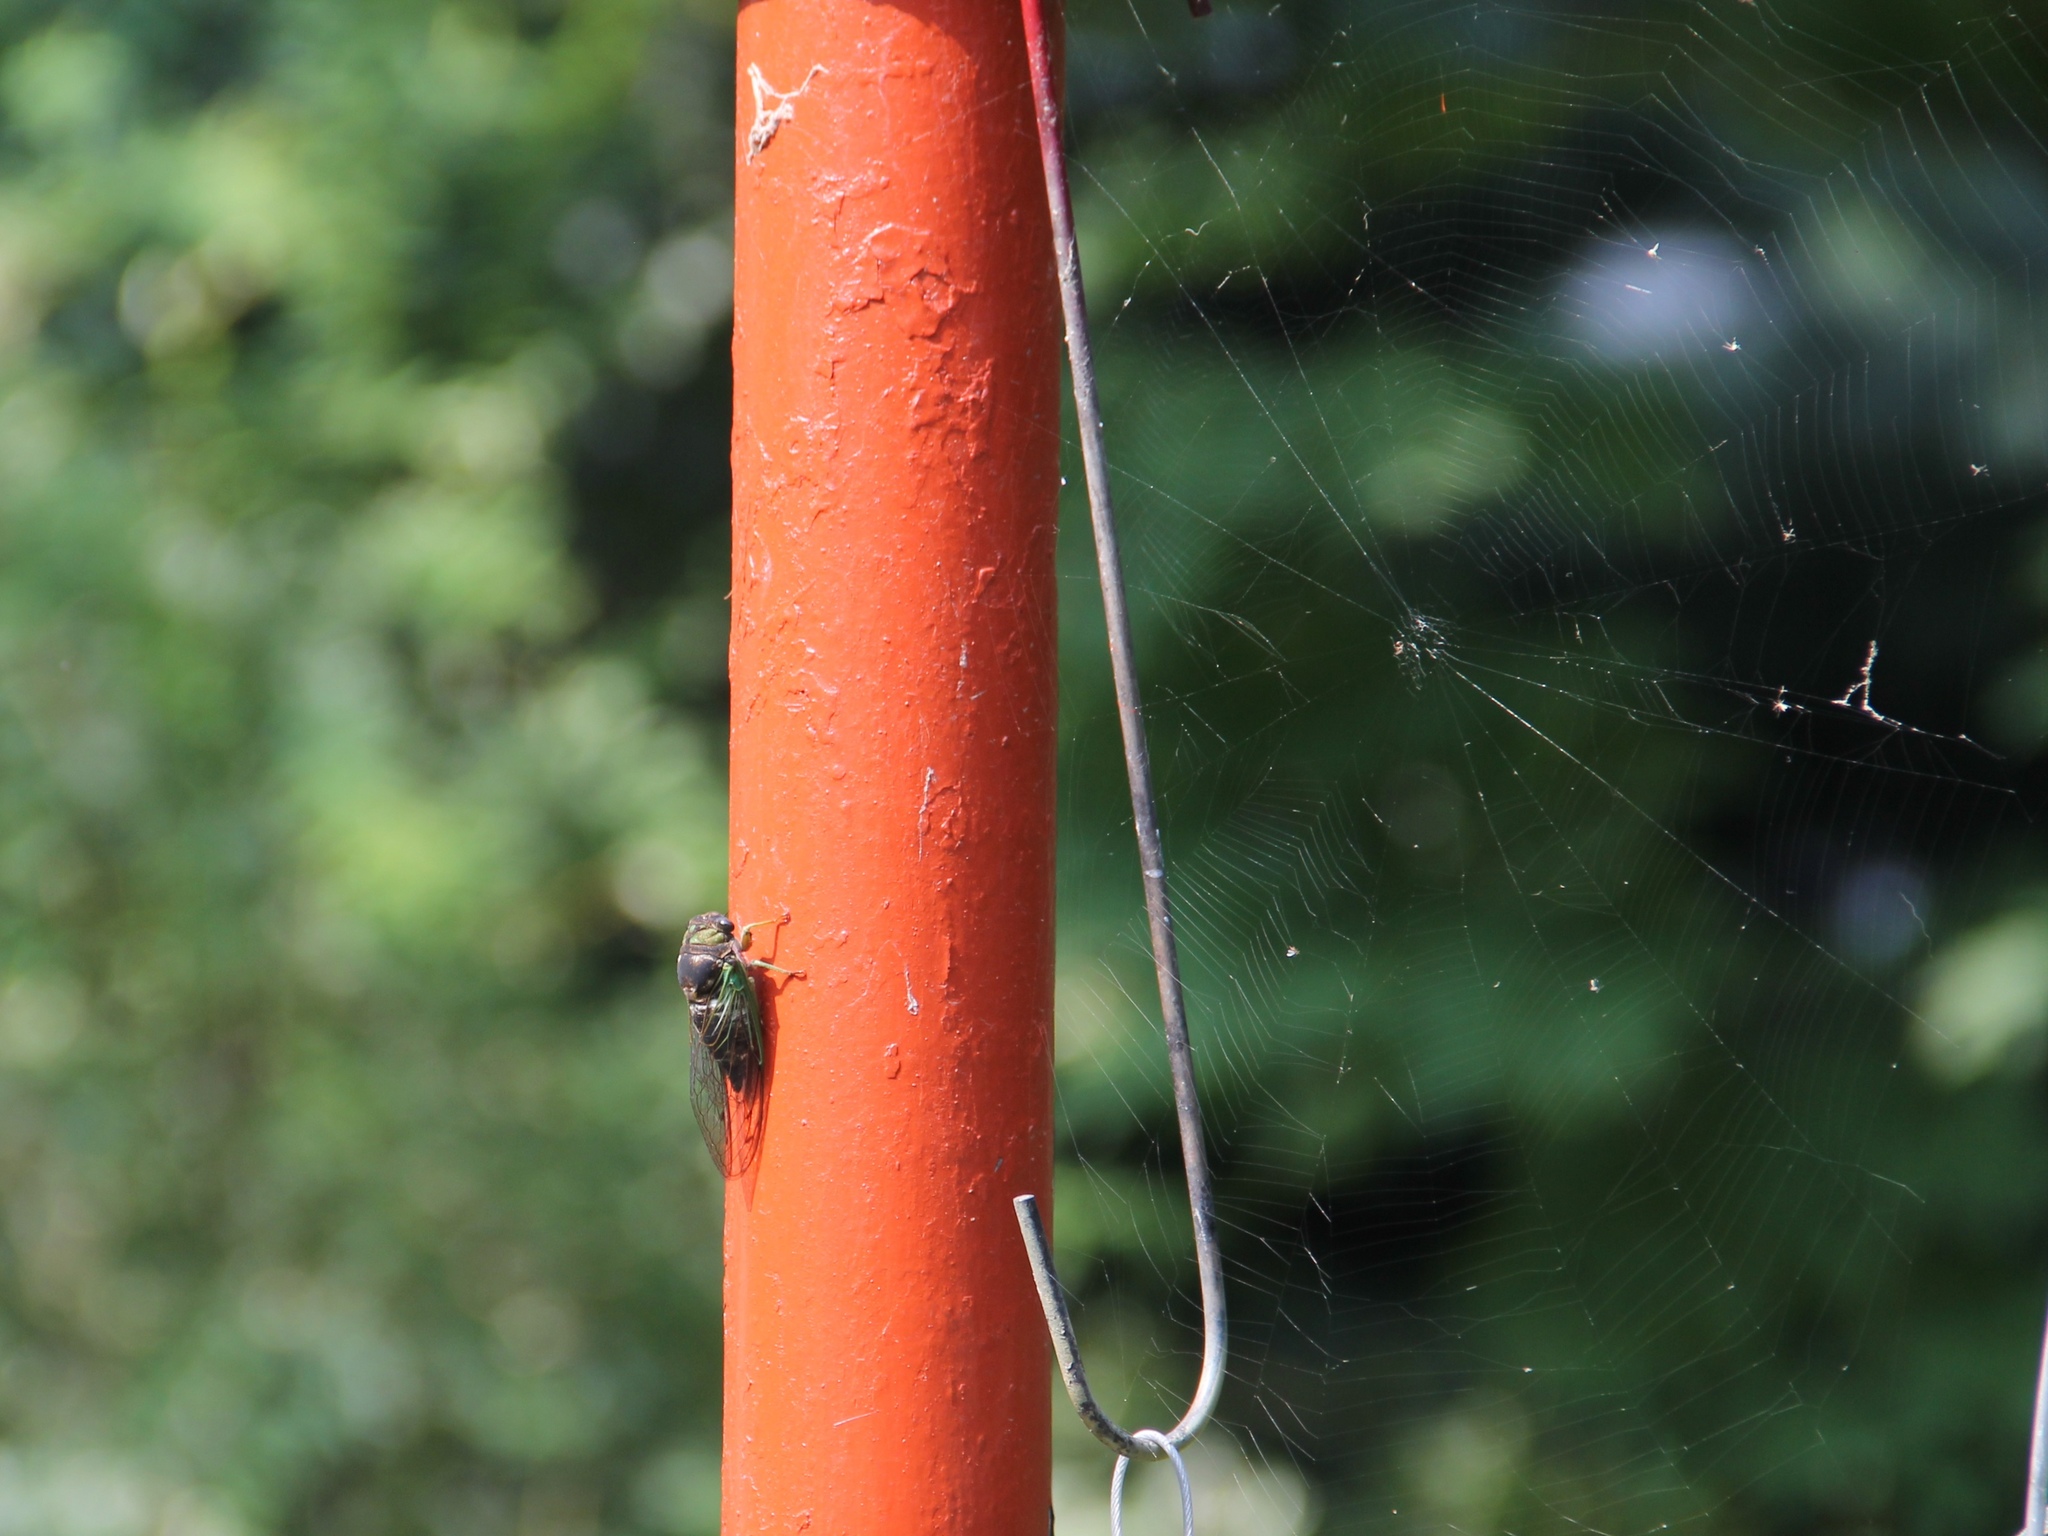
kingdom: Animalia
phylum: Arthropoda
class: Insecta
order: Hemiptera
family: Cicadidae
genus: Neotibicen
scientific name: Neotibicen tibicen
